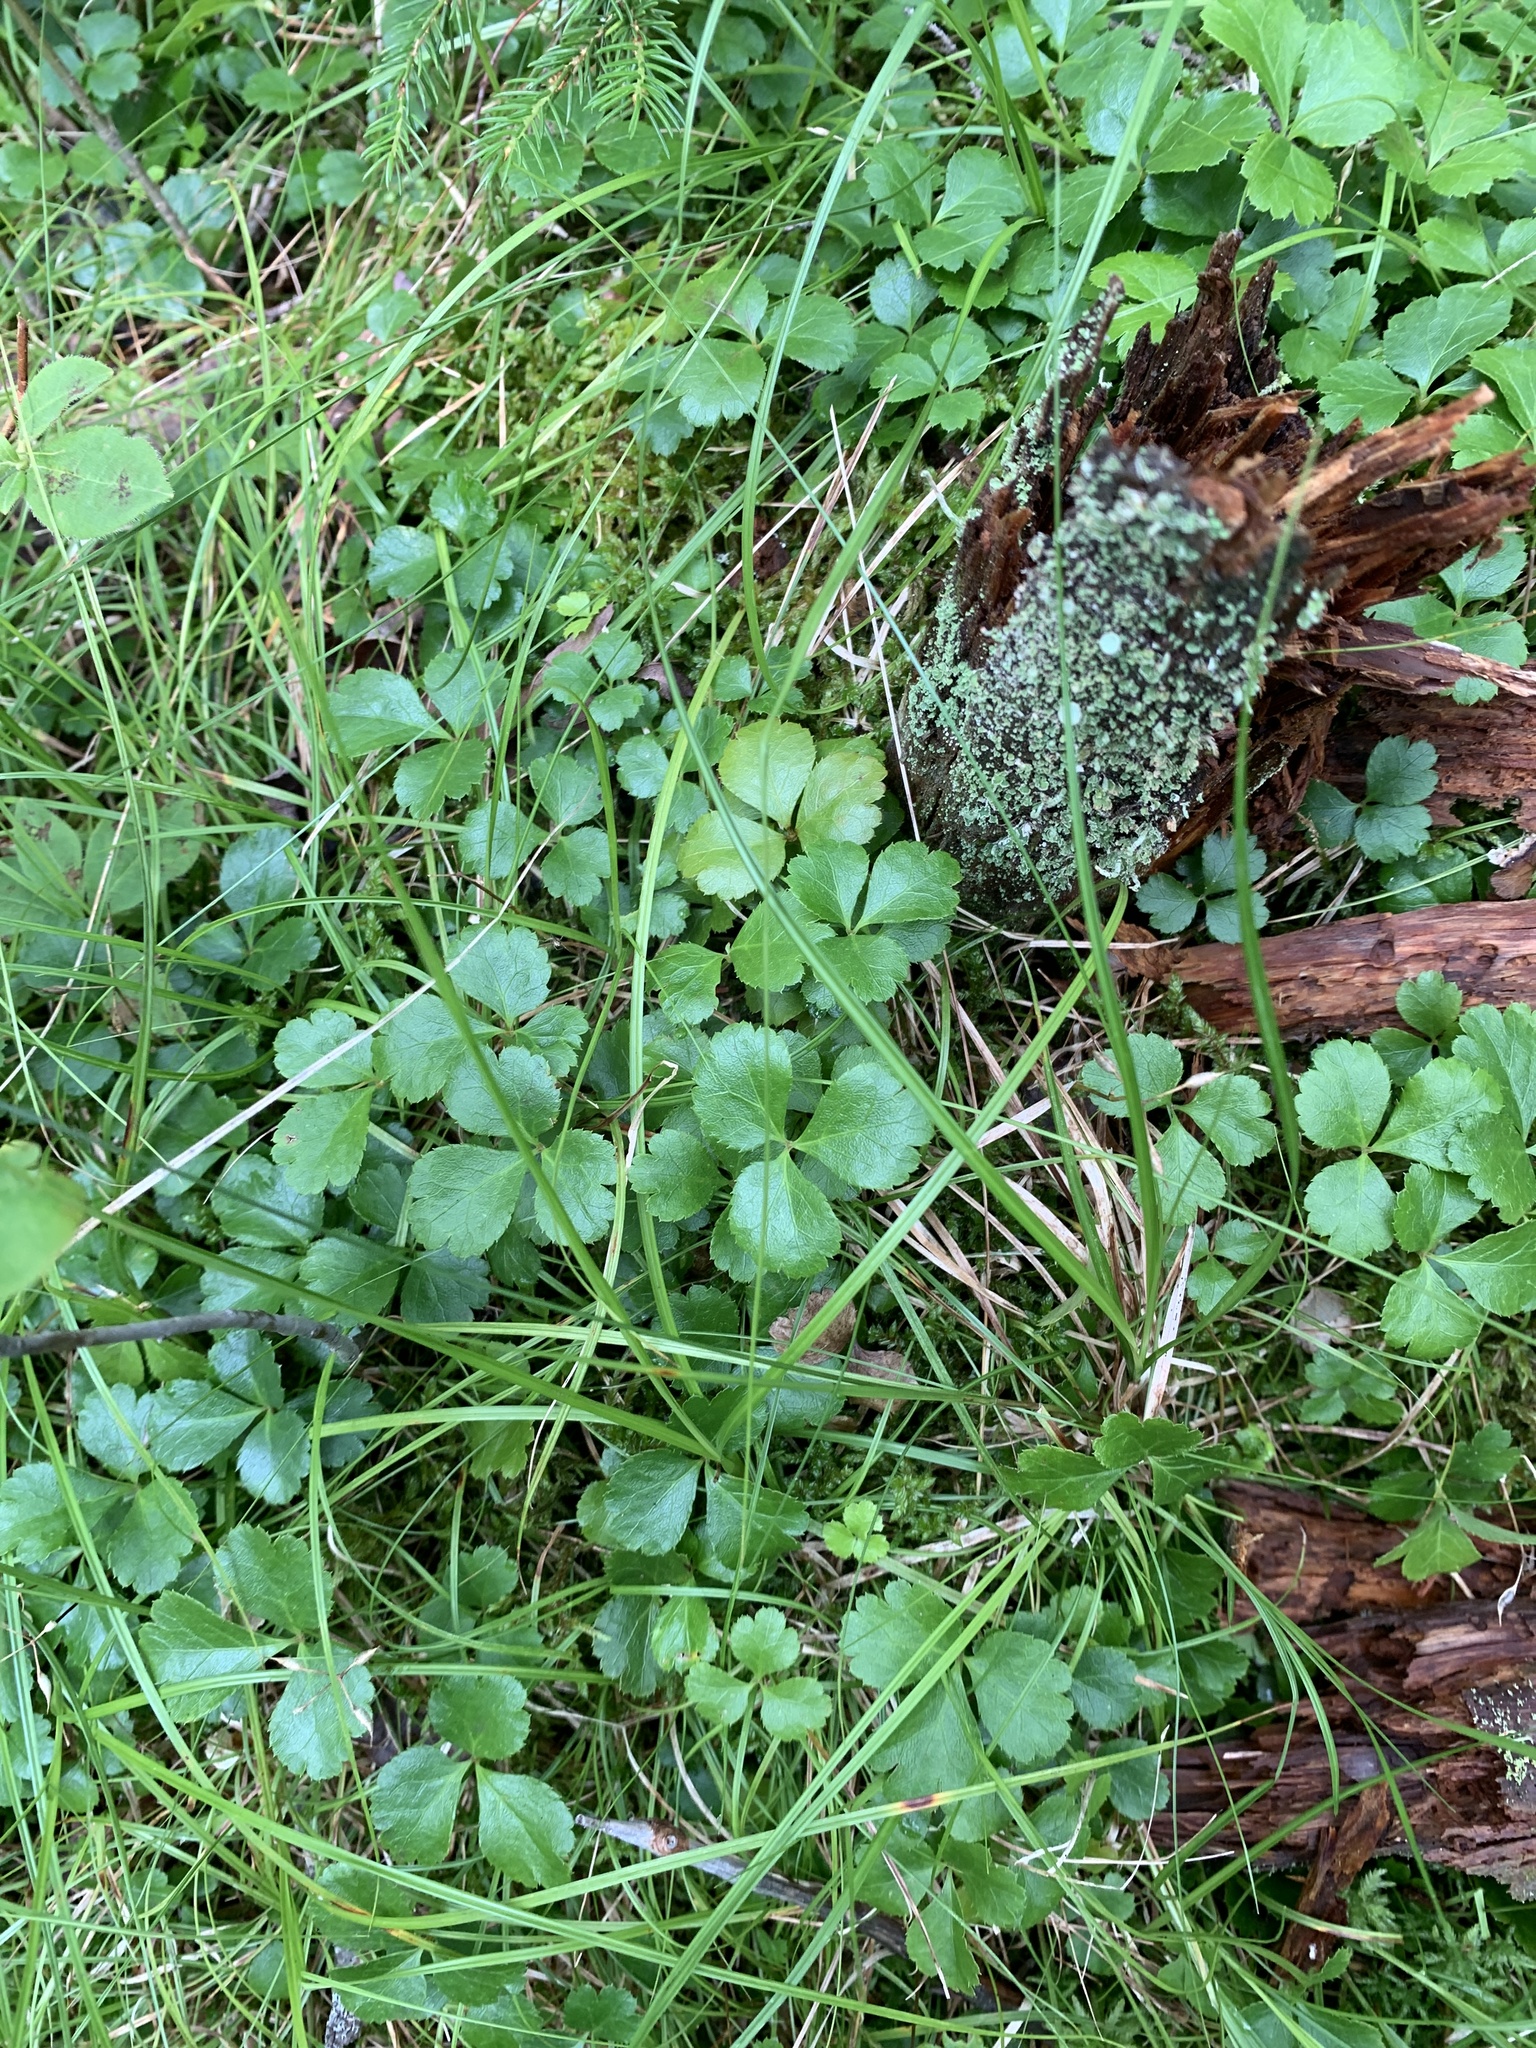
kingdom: Plantae
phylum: Tracheophyta
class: Magnoliopsida
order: Ranunculales
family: Ranunculaceae
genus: Coptis
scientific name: Coptis trifolia
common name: Canker-root
